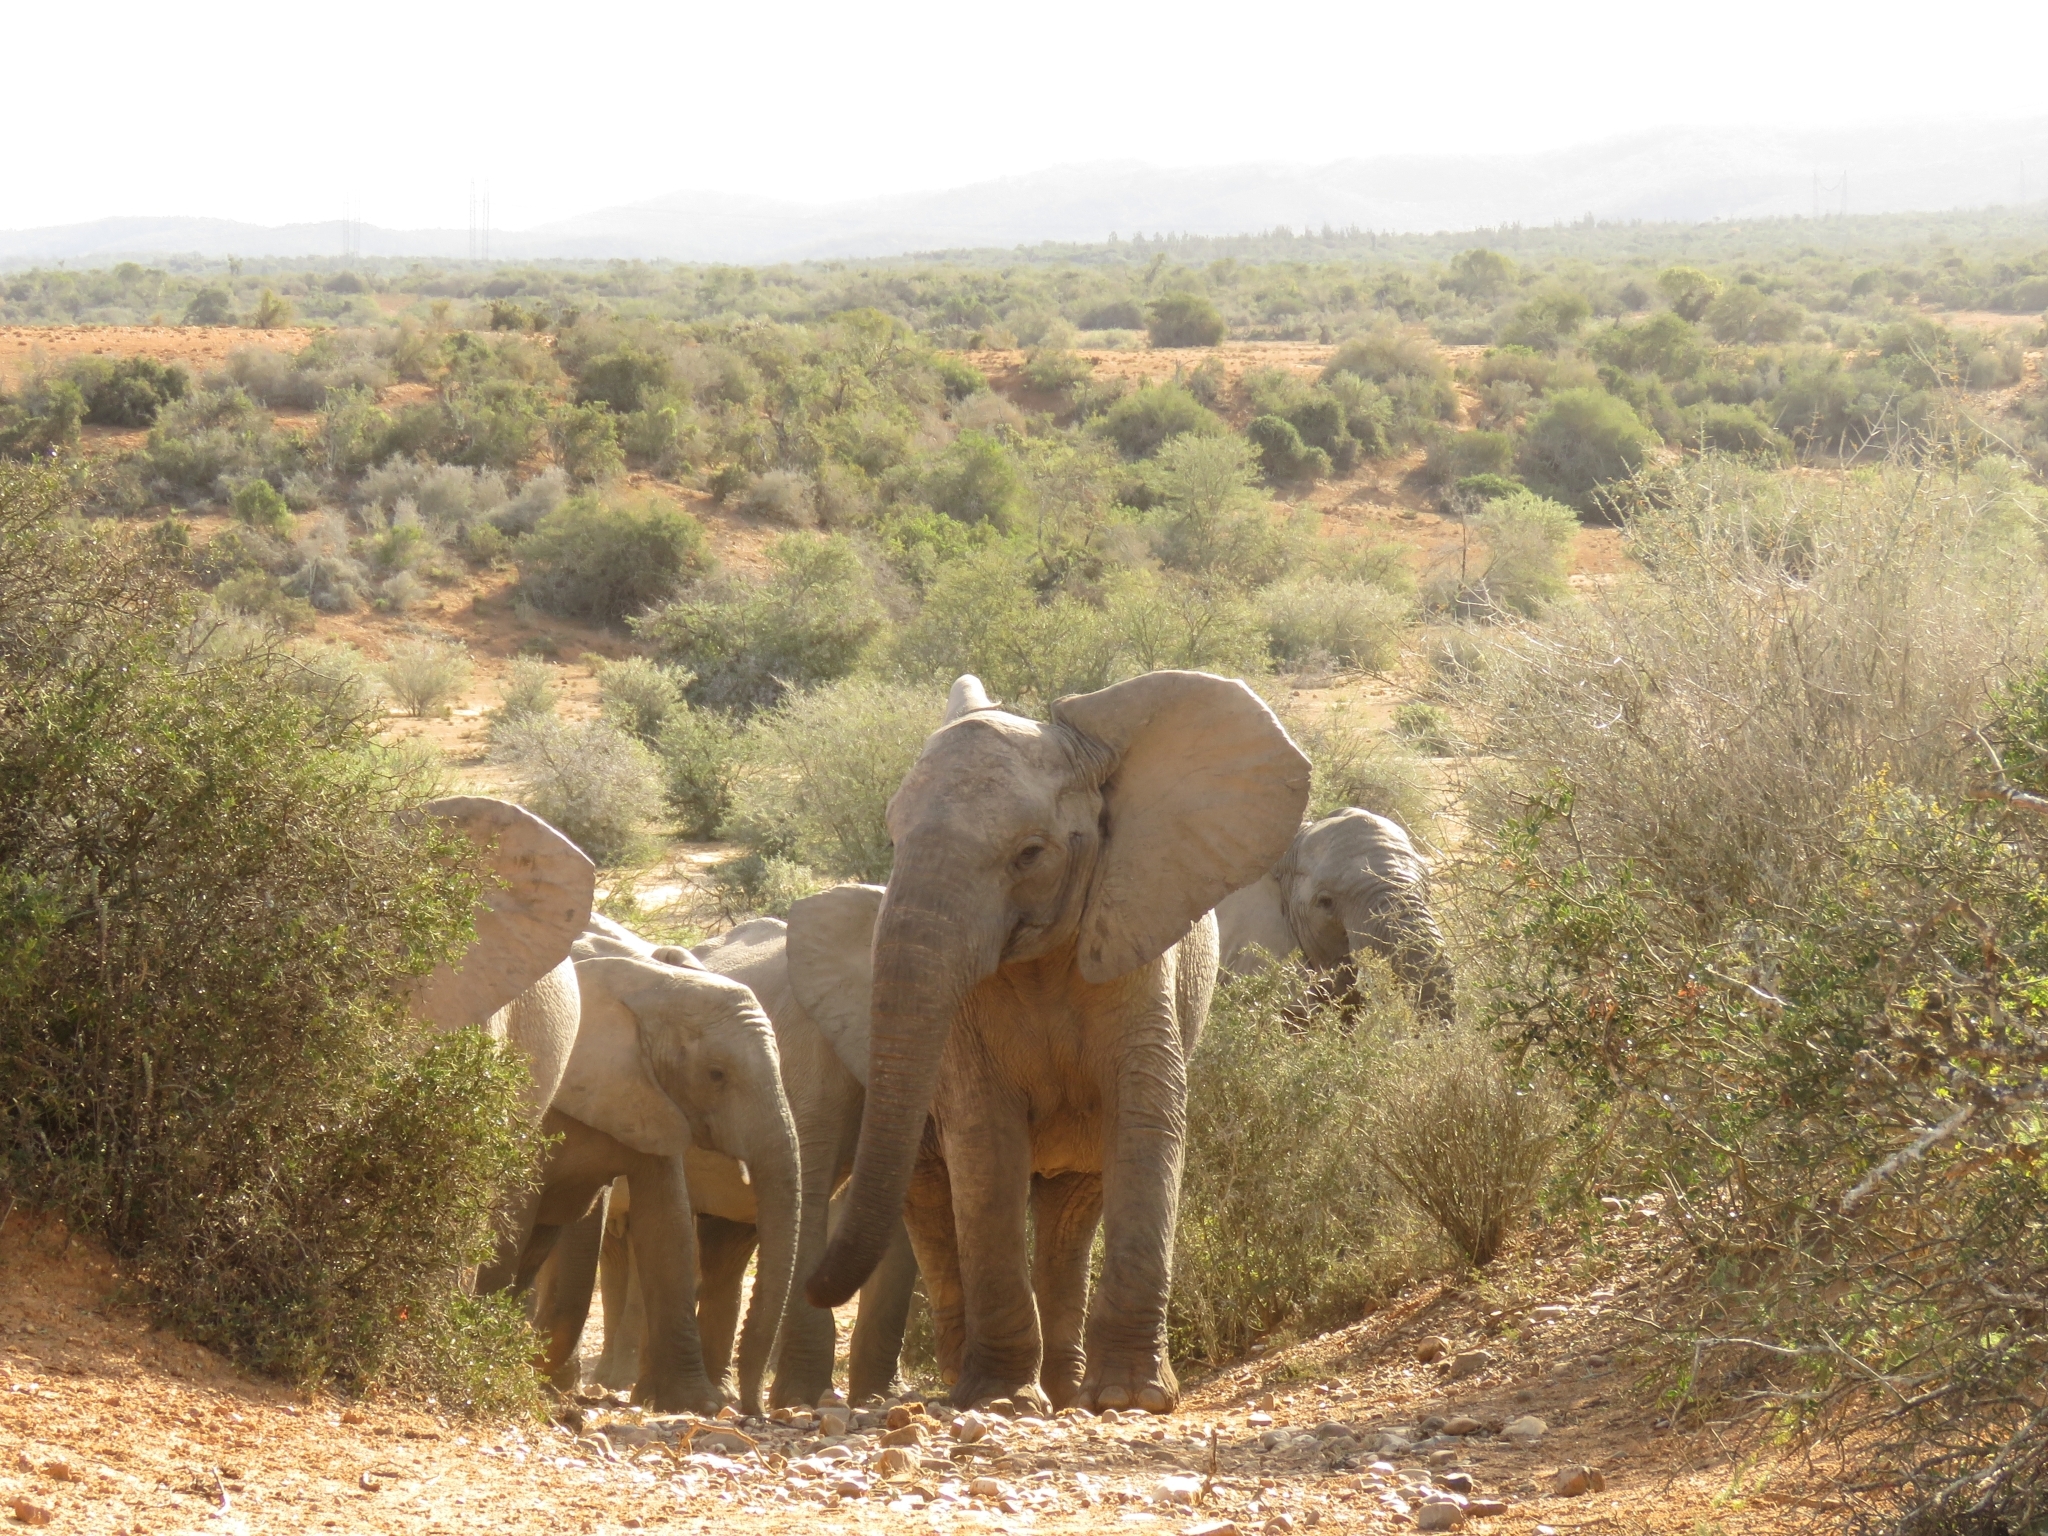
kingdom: Animalia
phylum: Chordata
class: Mammalia
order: Proboscidea
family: Elephantidae
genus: Loxodonta
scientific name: Loxodonta africana
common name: African elephant
